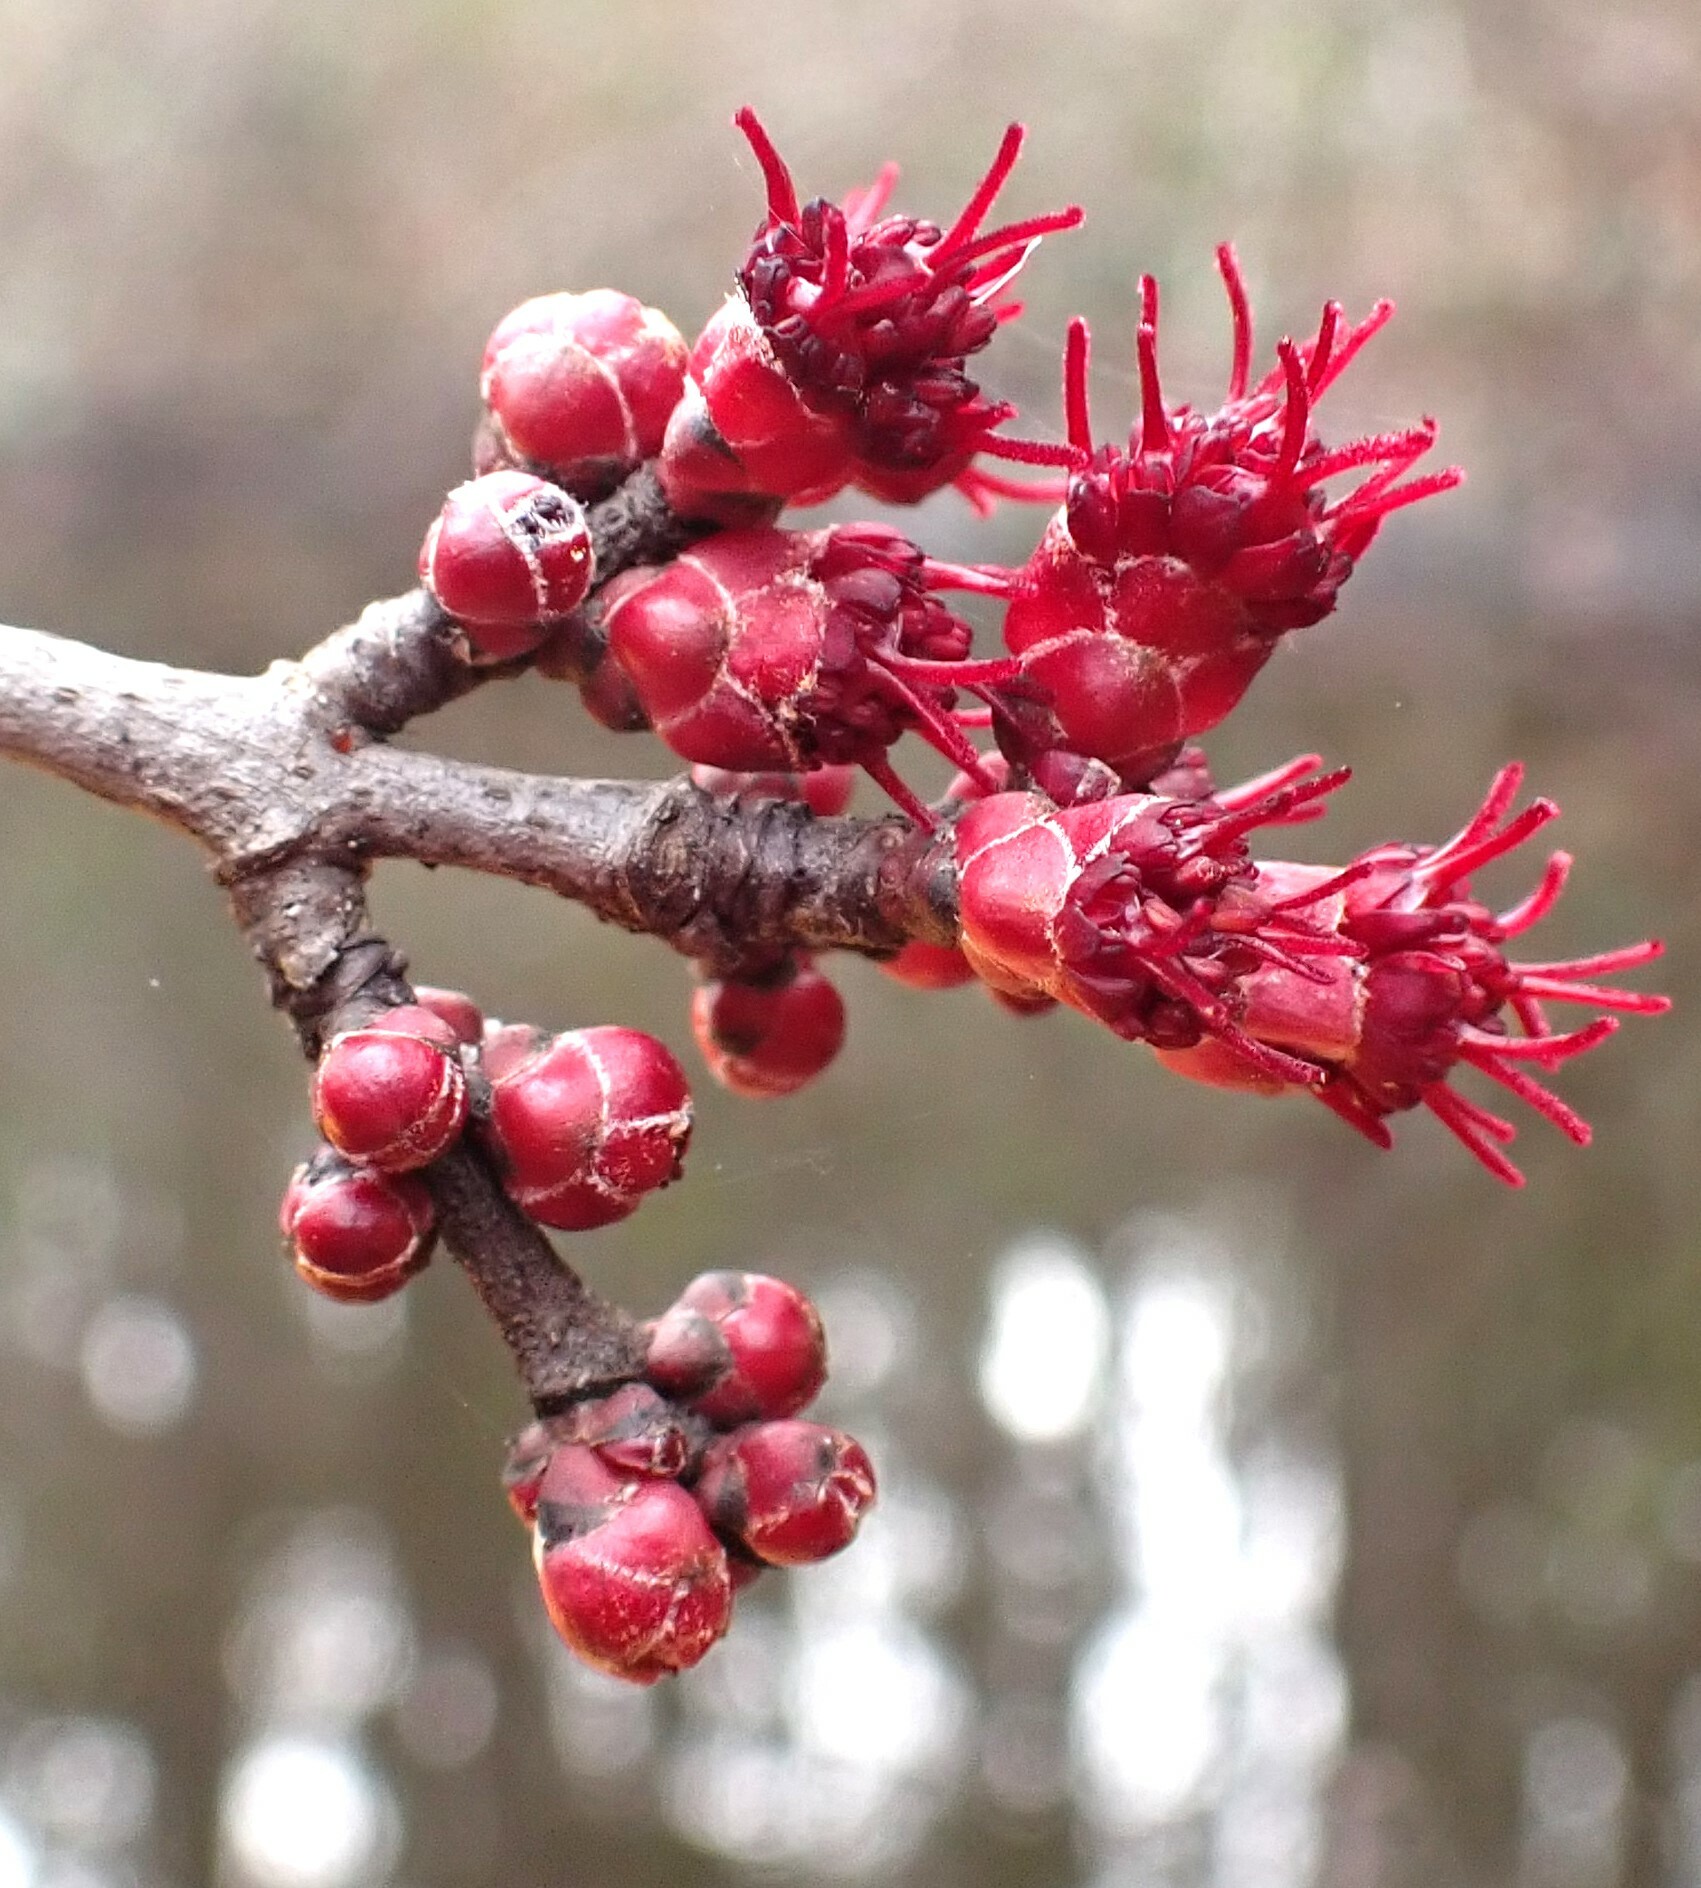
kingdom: Plantae
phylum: Tracheophyta
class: Magnoliopsida
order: Sapindales
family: Sapindaceae
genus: Acer
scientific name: Acer rubrum
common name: Red maple
